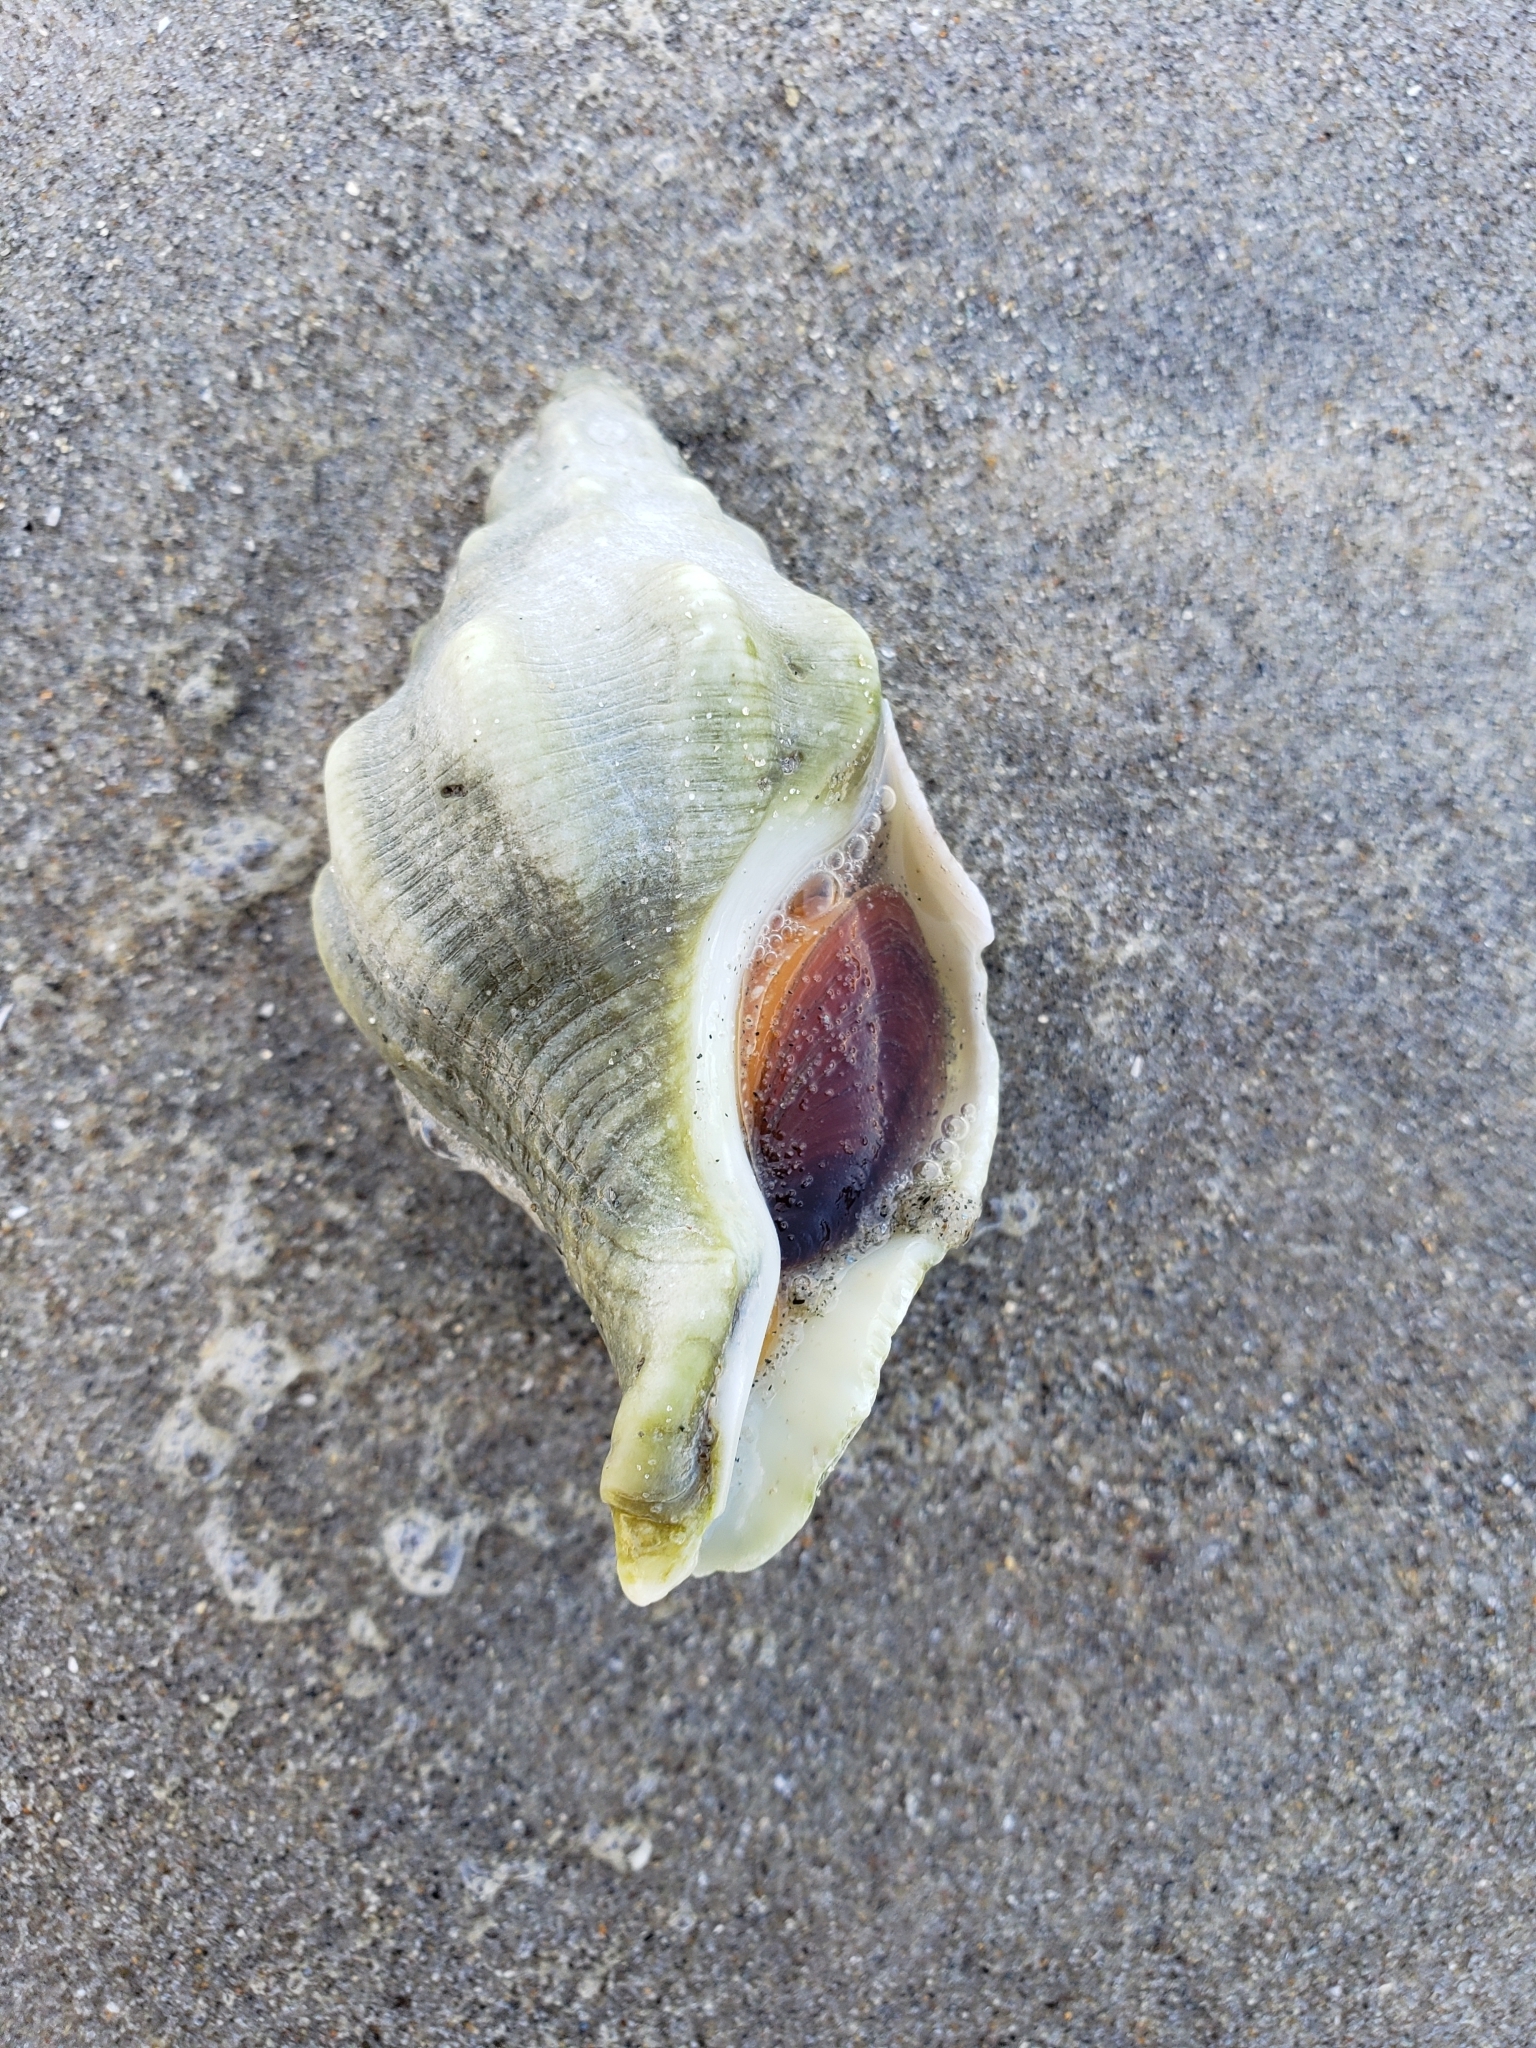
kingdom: Animalia
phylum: Mollusca
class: Gastropoda
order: Neogastropoda
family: Austrosiphonidae
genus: Kelletia
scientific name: Kelletia kelletii
